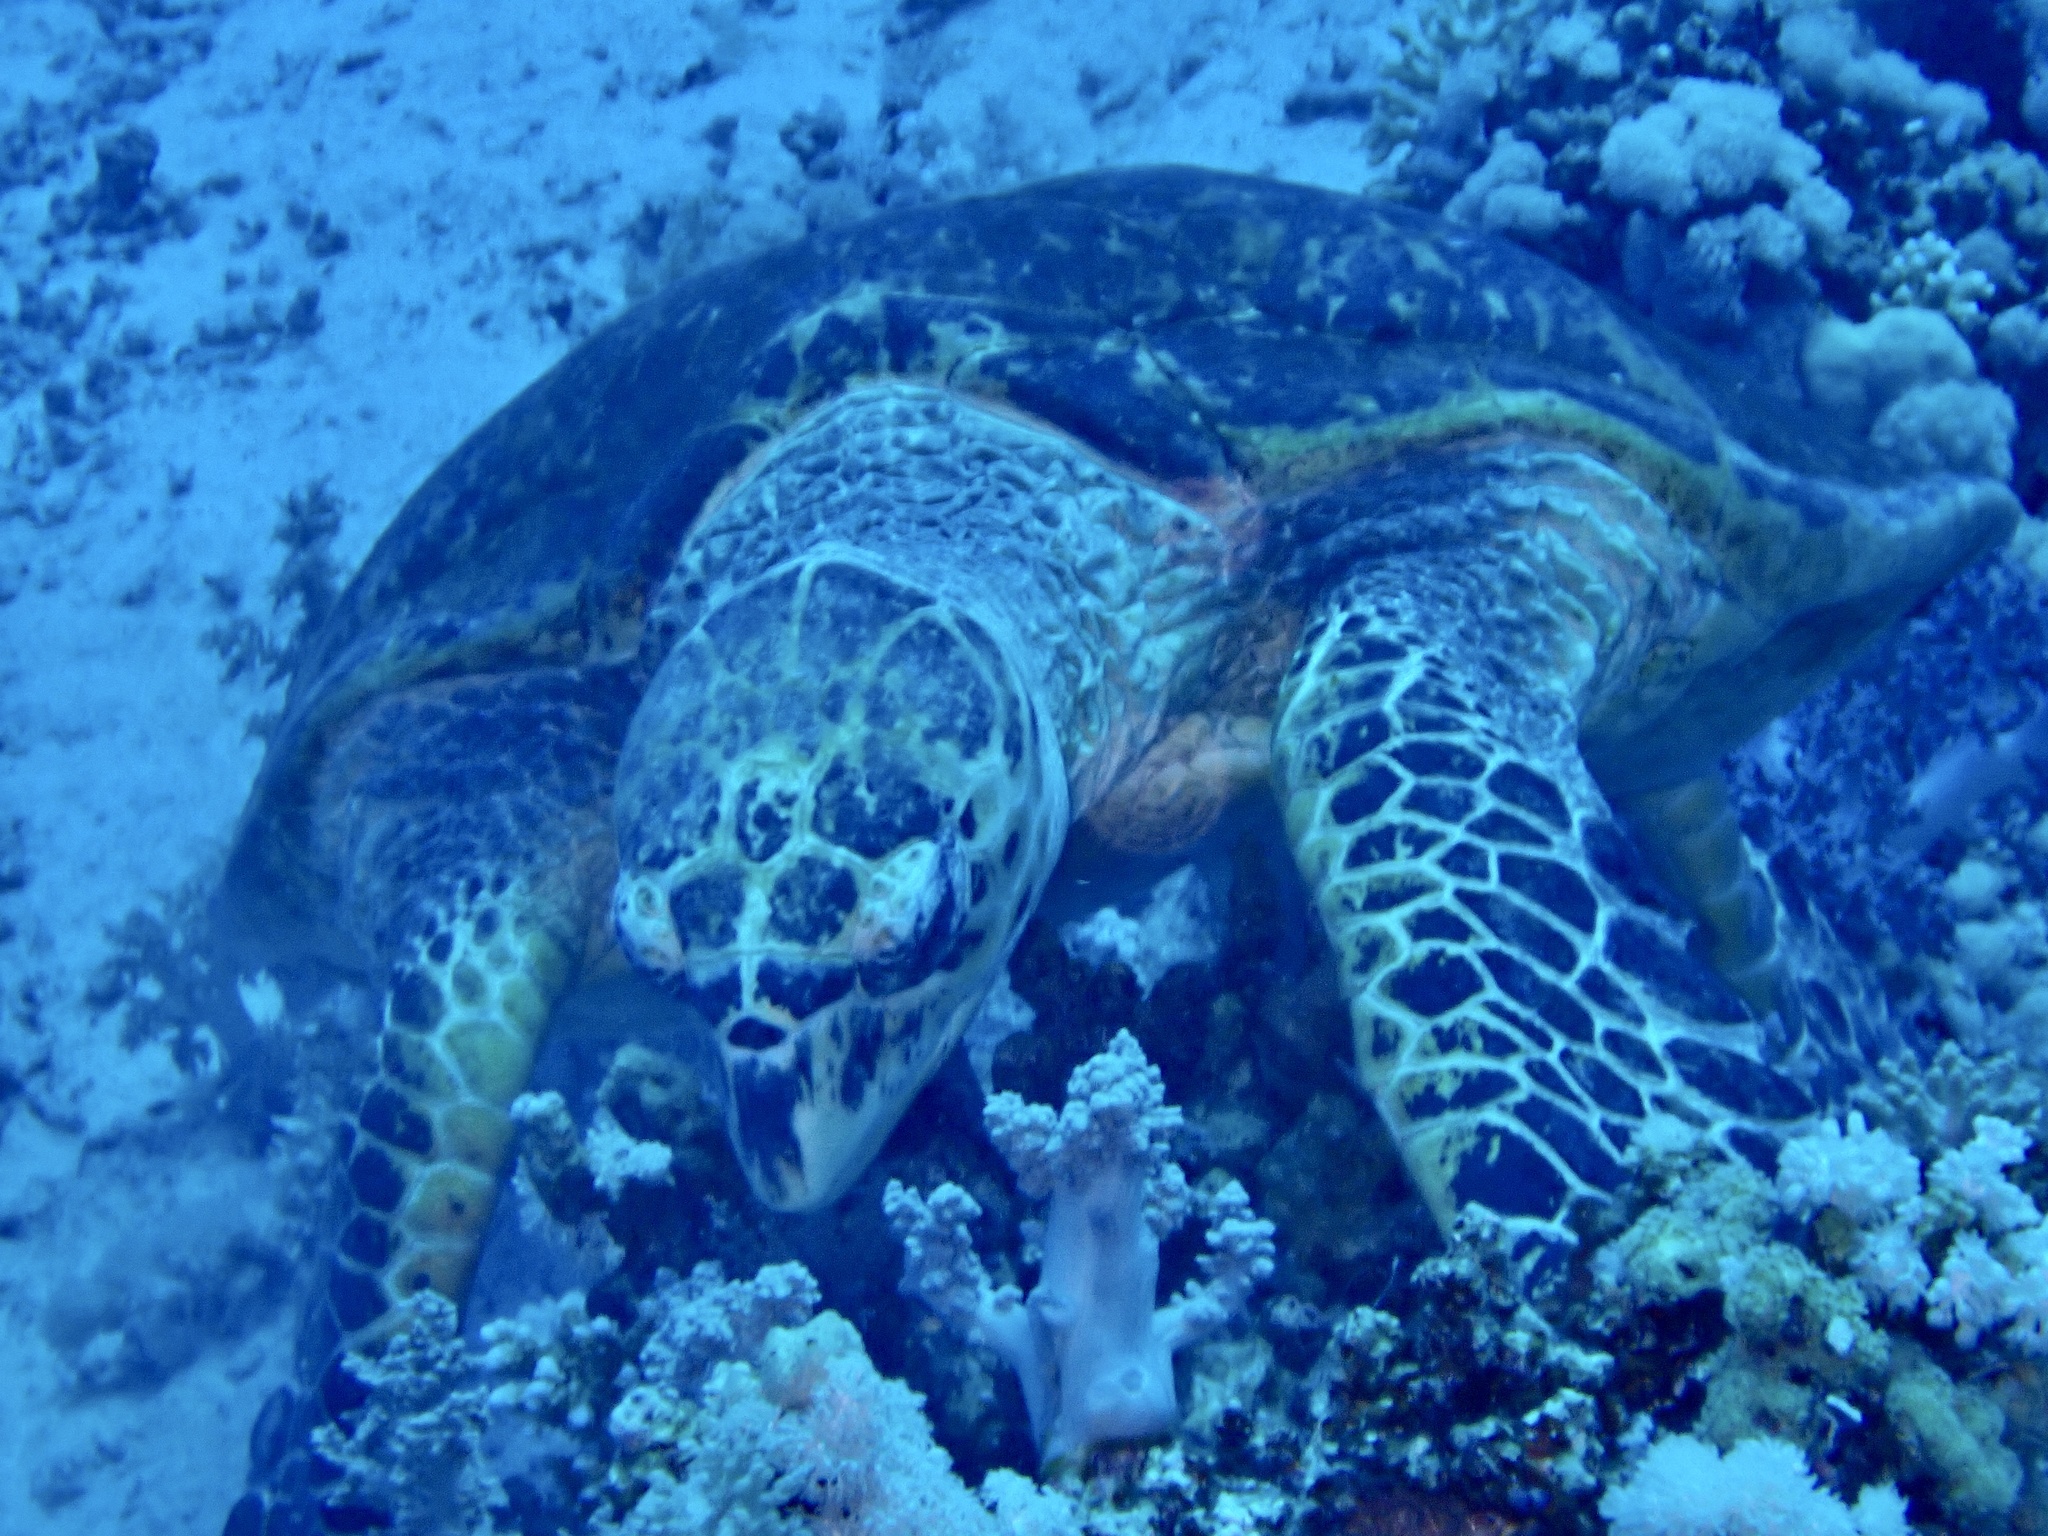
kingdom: Animalia
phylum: Chordata
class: Testudines
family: Cheloniidae
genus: Eretmochelys
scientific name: Eretmochelys imbricata
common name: Hawksbill turtle
